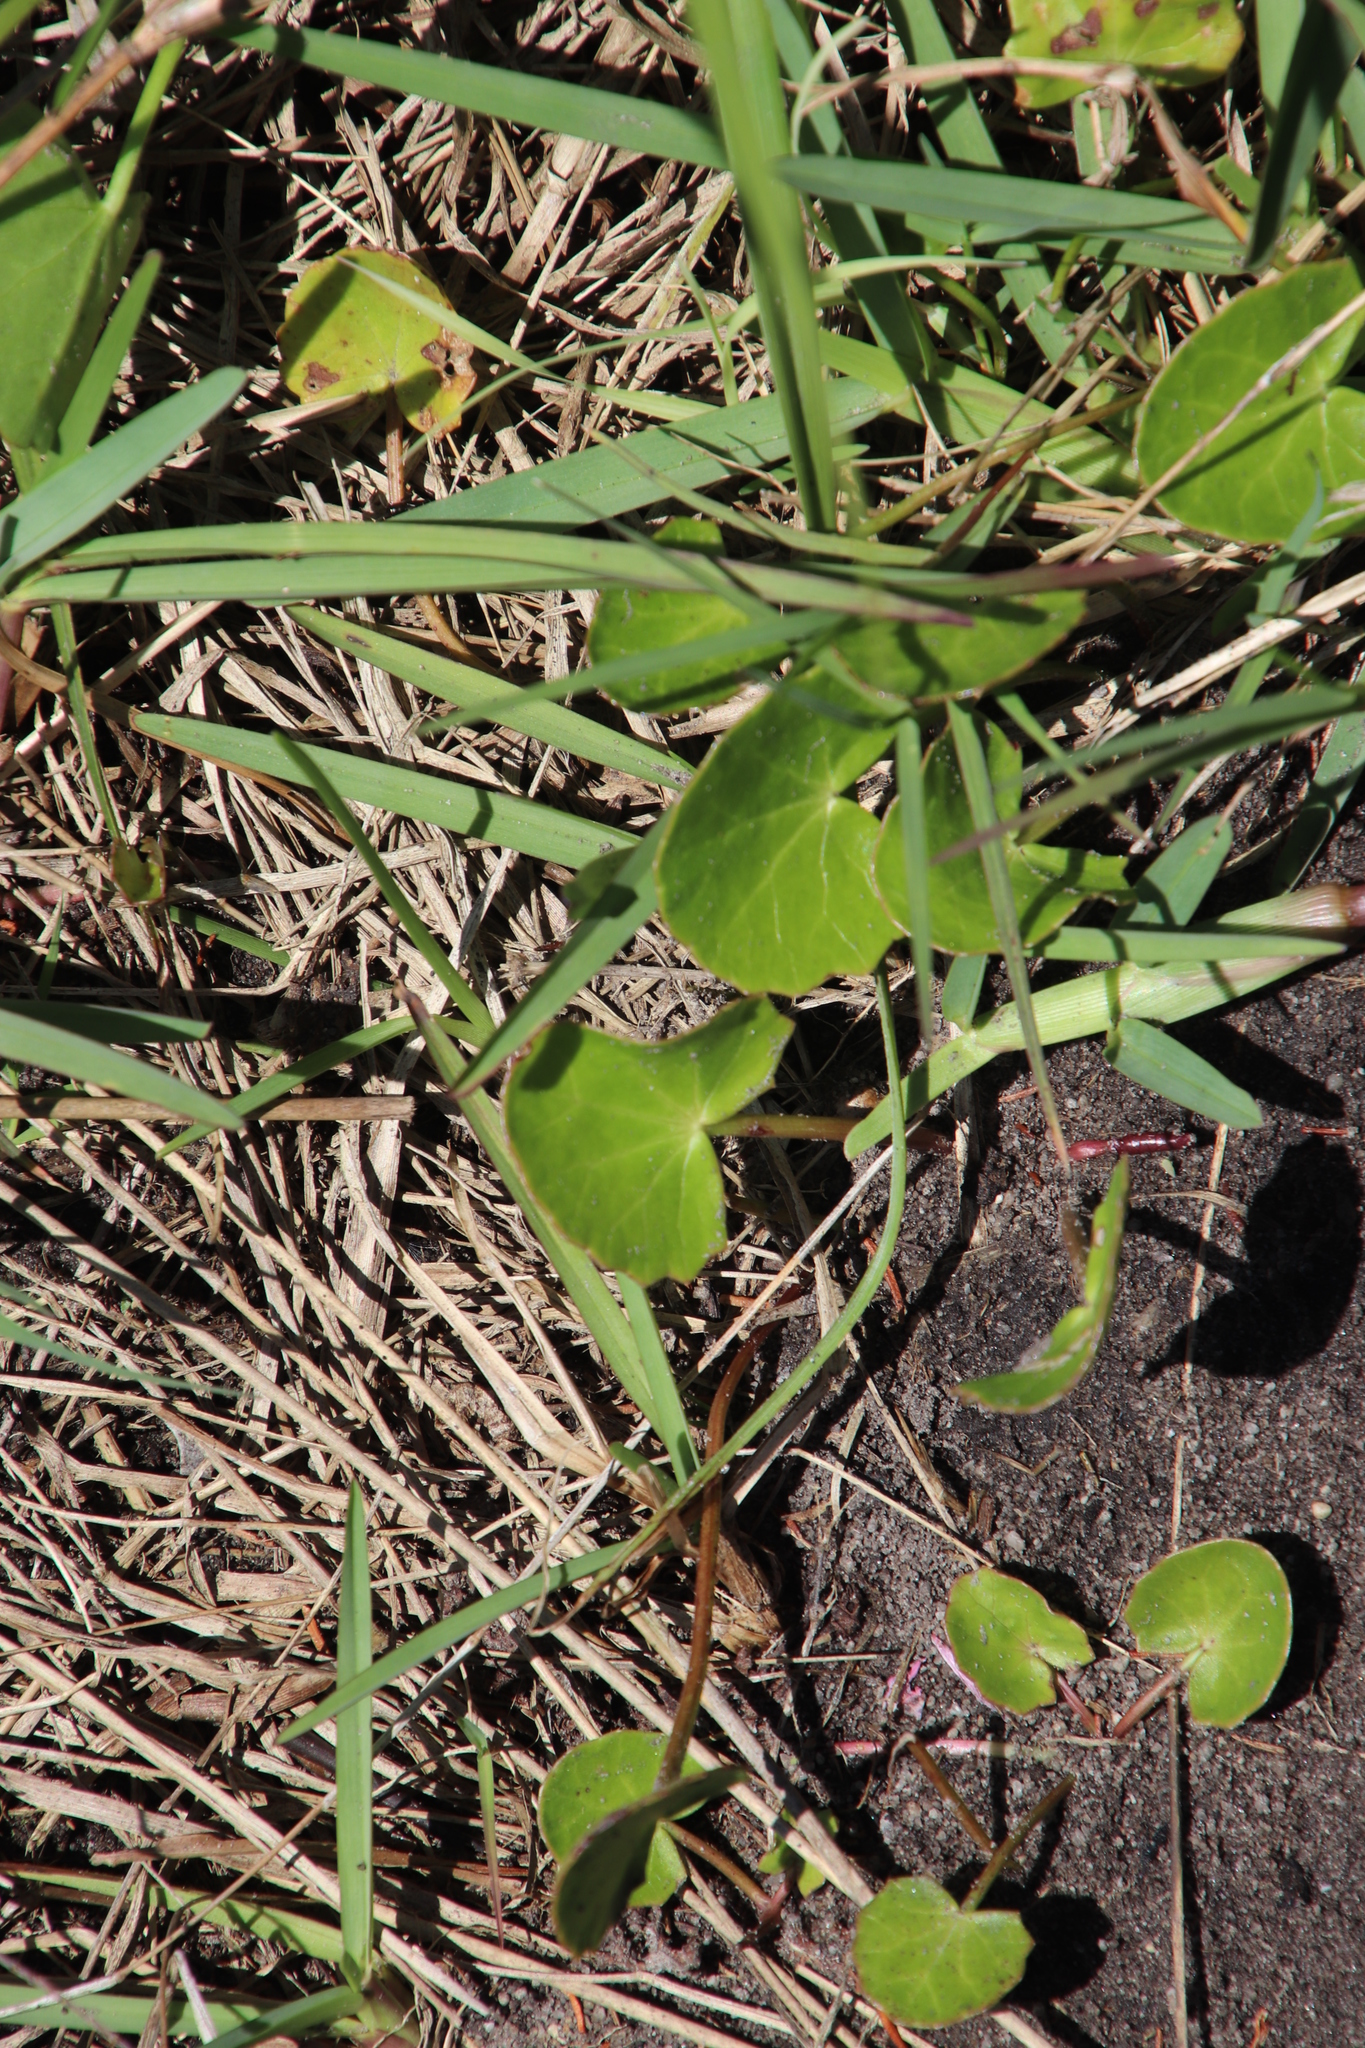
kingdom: Plantae
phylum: Tracheophyta
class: Magnoliopsida
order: Apiales
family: Apiaceae
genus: Centella
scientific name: Centella asiatica
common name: Spadeleaf
